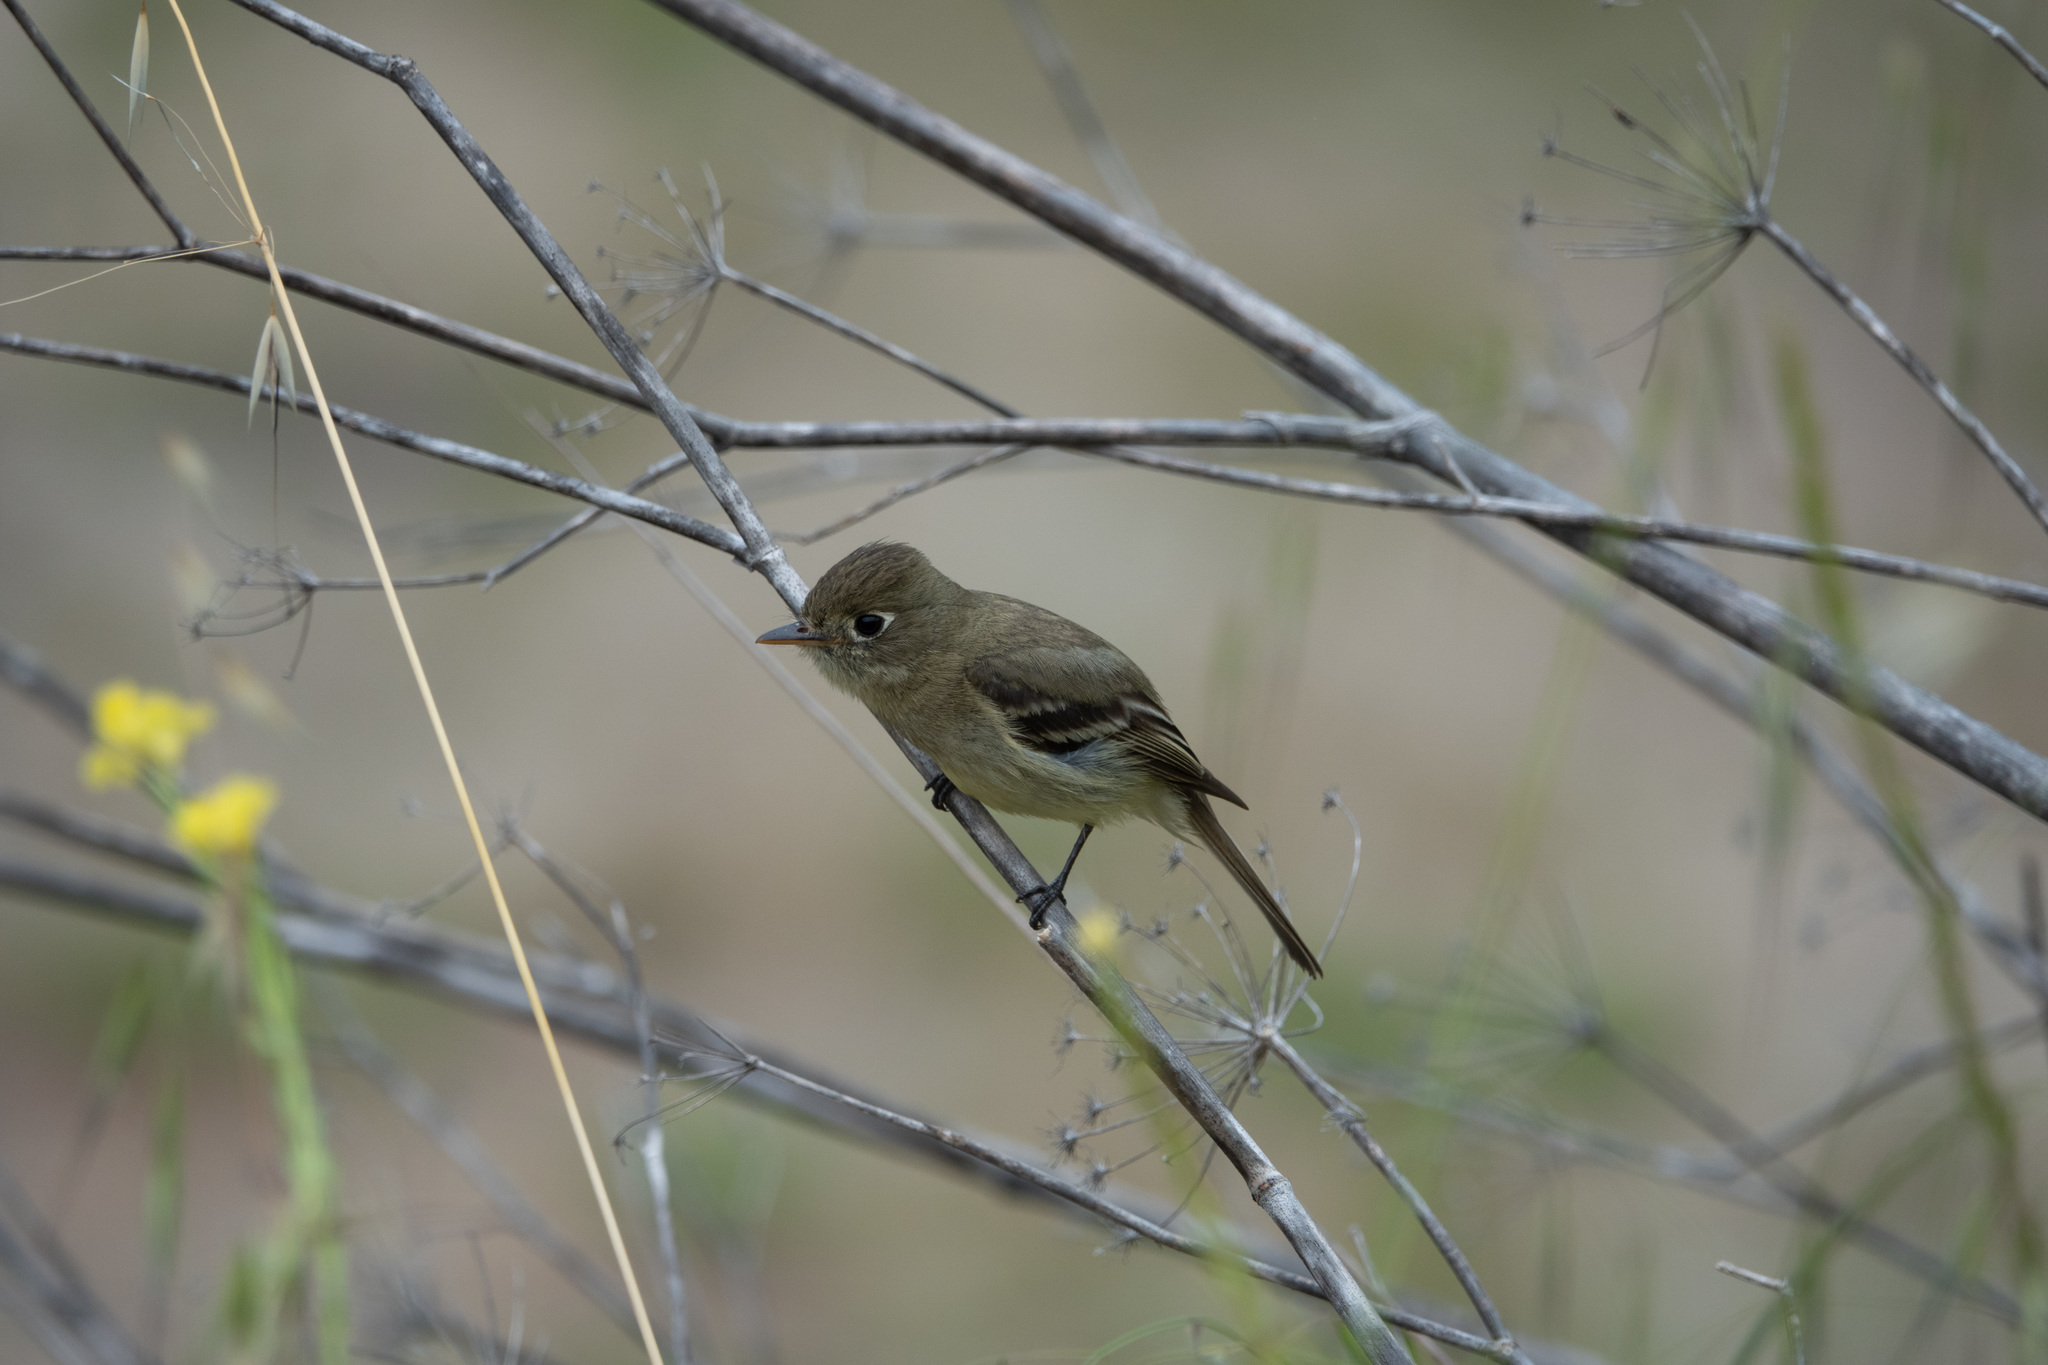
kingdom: Animalia
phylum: Chordata
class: Aves
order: Passeriformes
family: Tyrannidae
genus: Empidonax
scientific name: Empidonax difficilis
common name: Pacific-slope flycatcher
